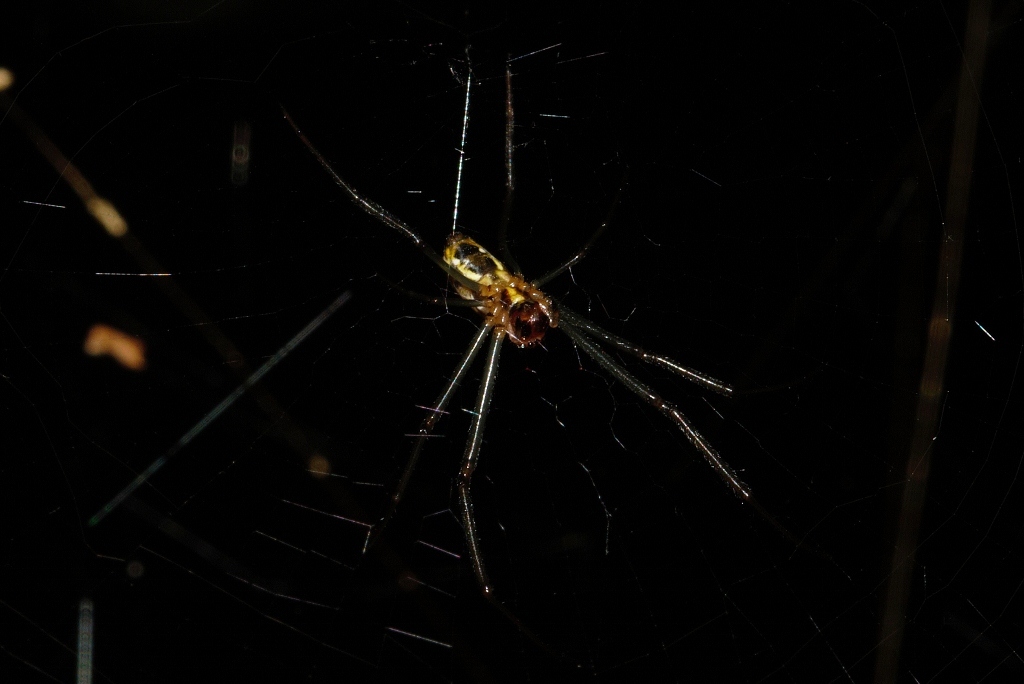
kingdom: Animalia
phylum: Arthropoda
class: Arachnida
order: Araneae
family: Araneidae
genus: Trichonephila
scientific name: Trichonephila fenestrata
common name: Hairy golden orb weaver
